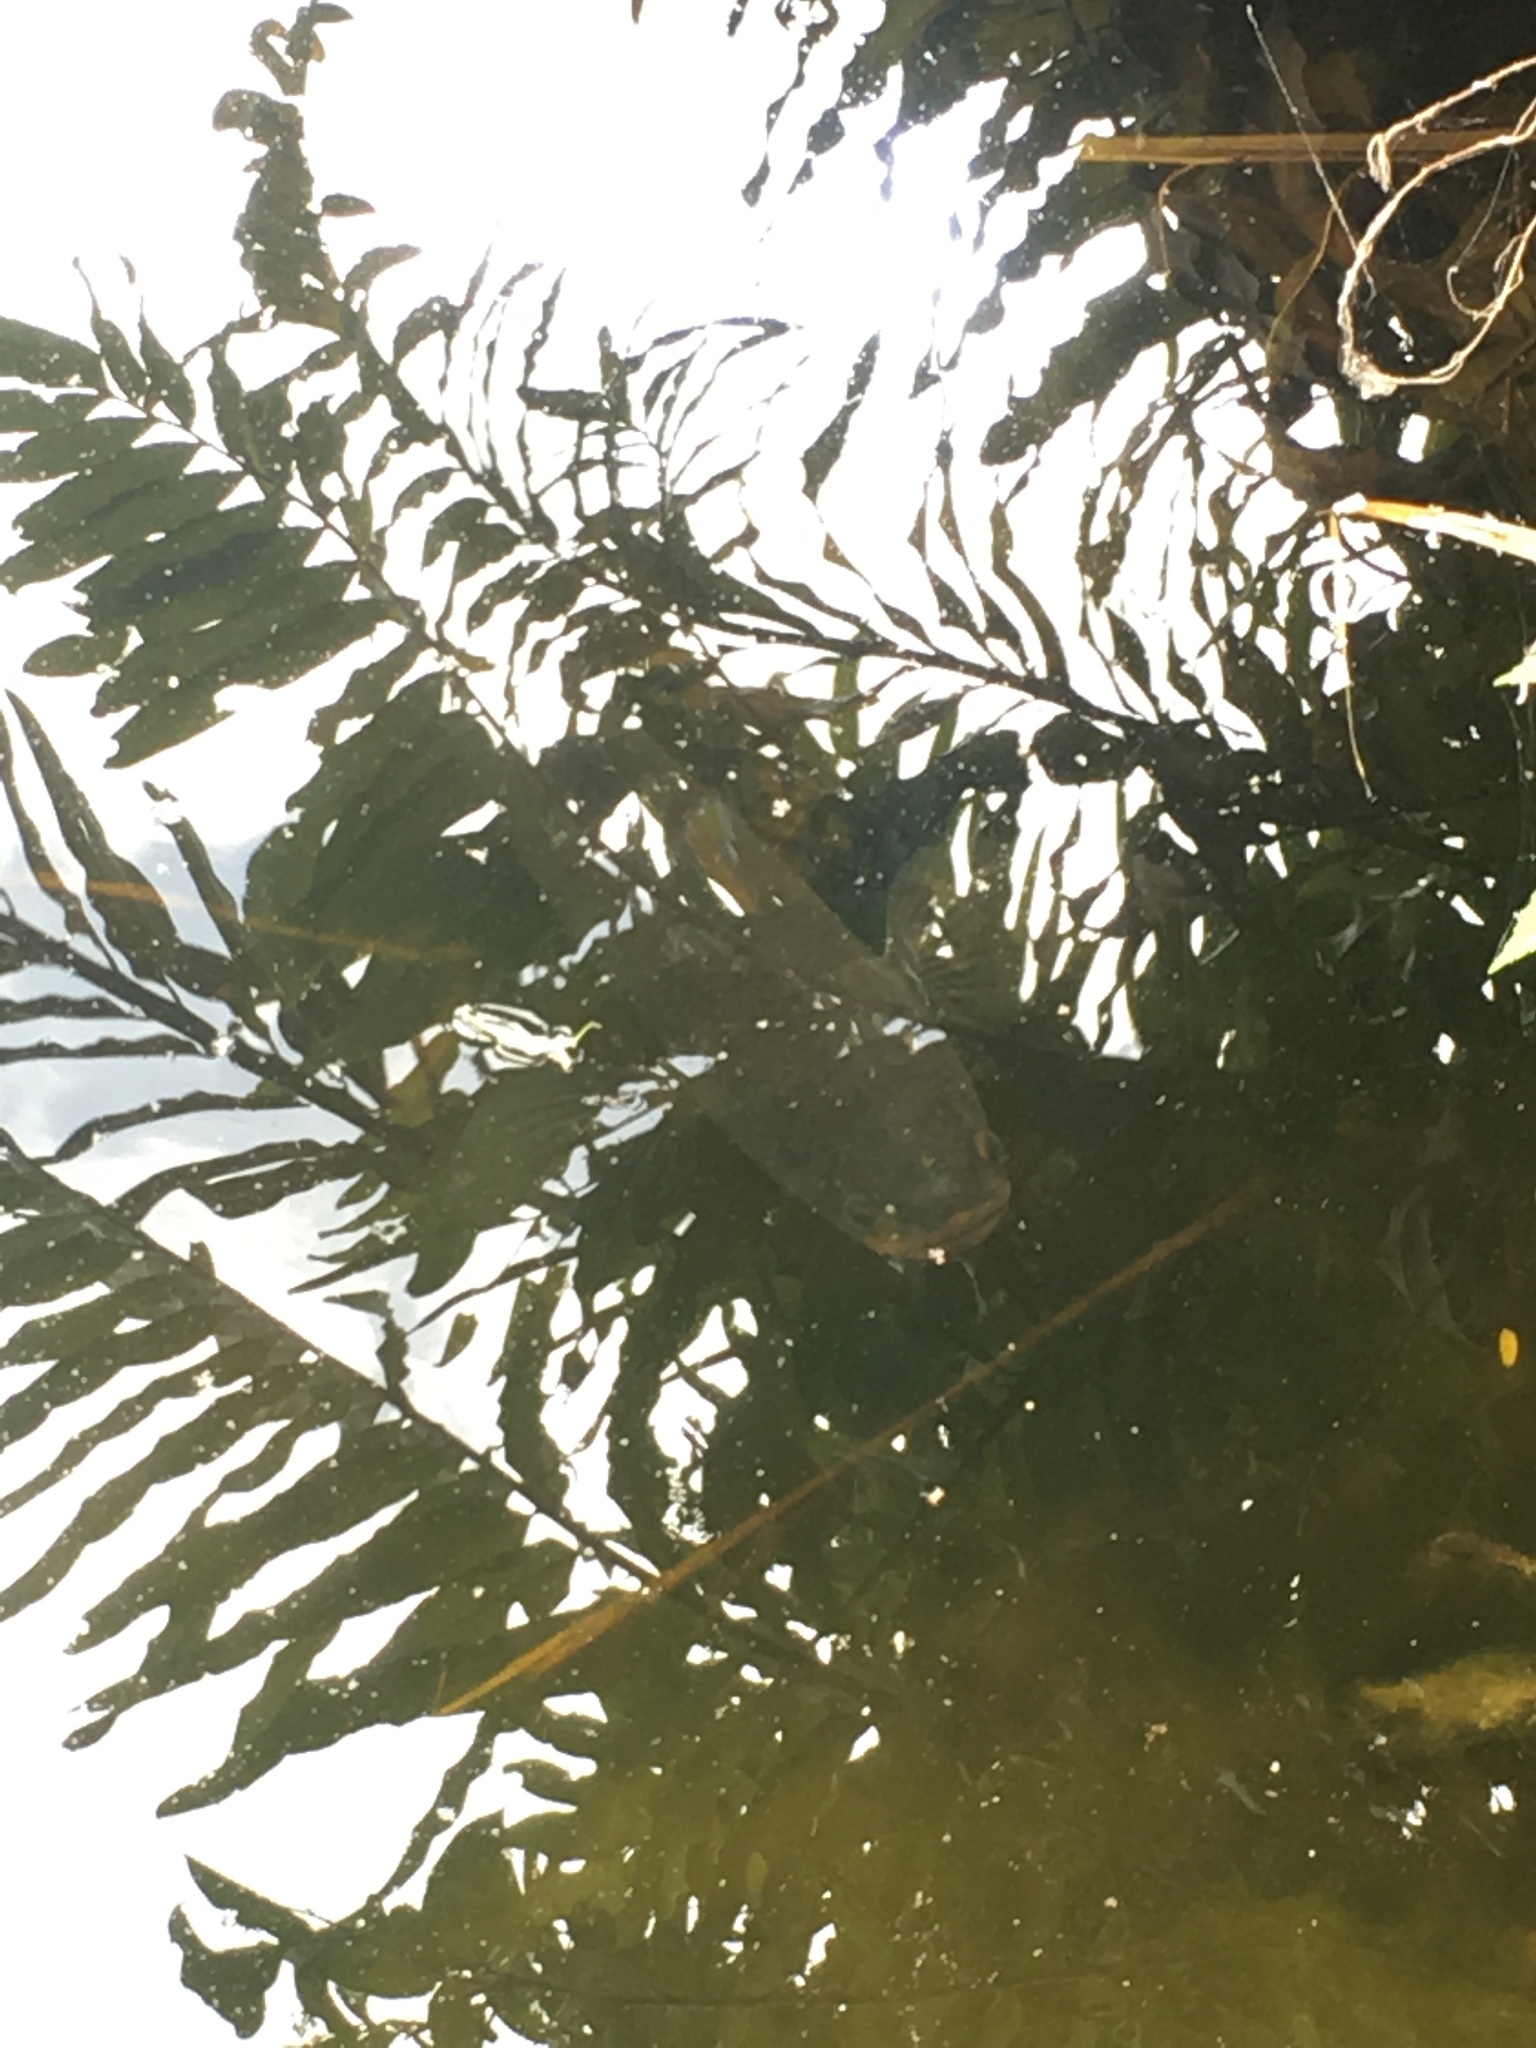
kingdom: Animalia
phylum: Chordata
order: Perciformes
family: Channidae
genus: Channa
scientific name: Channa marulius
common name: Giant snakehead
